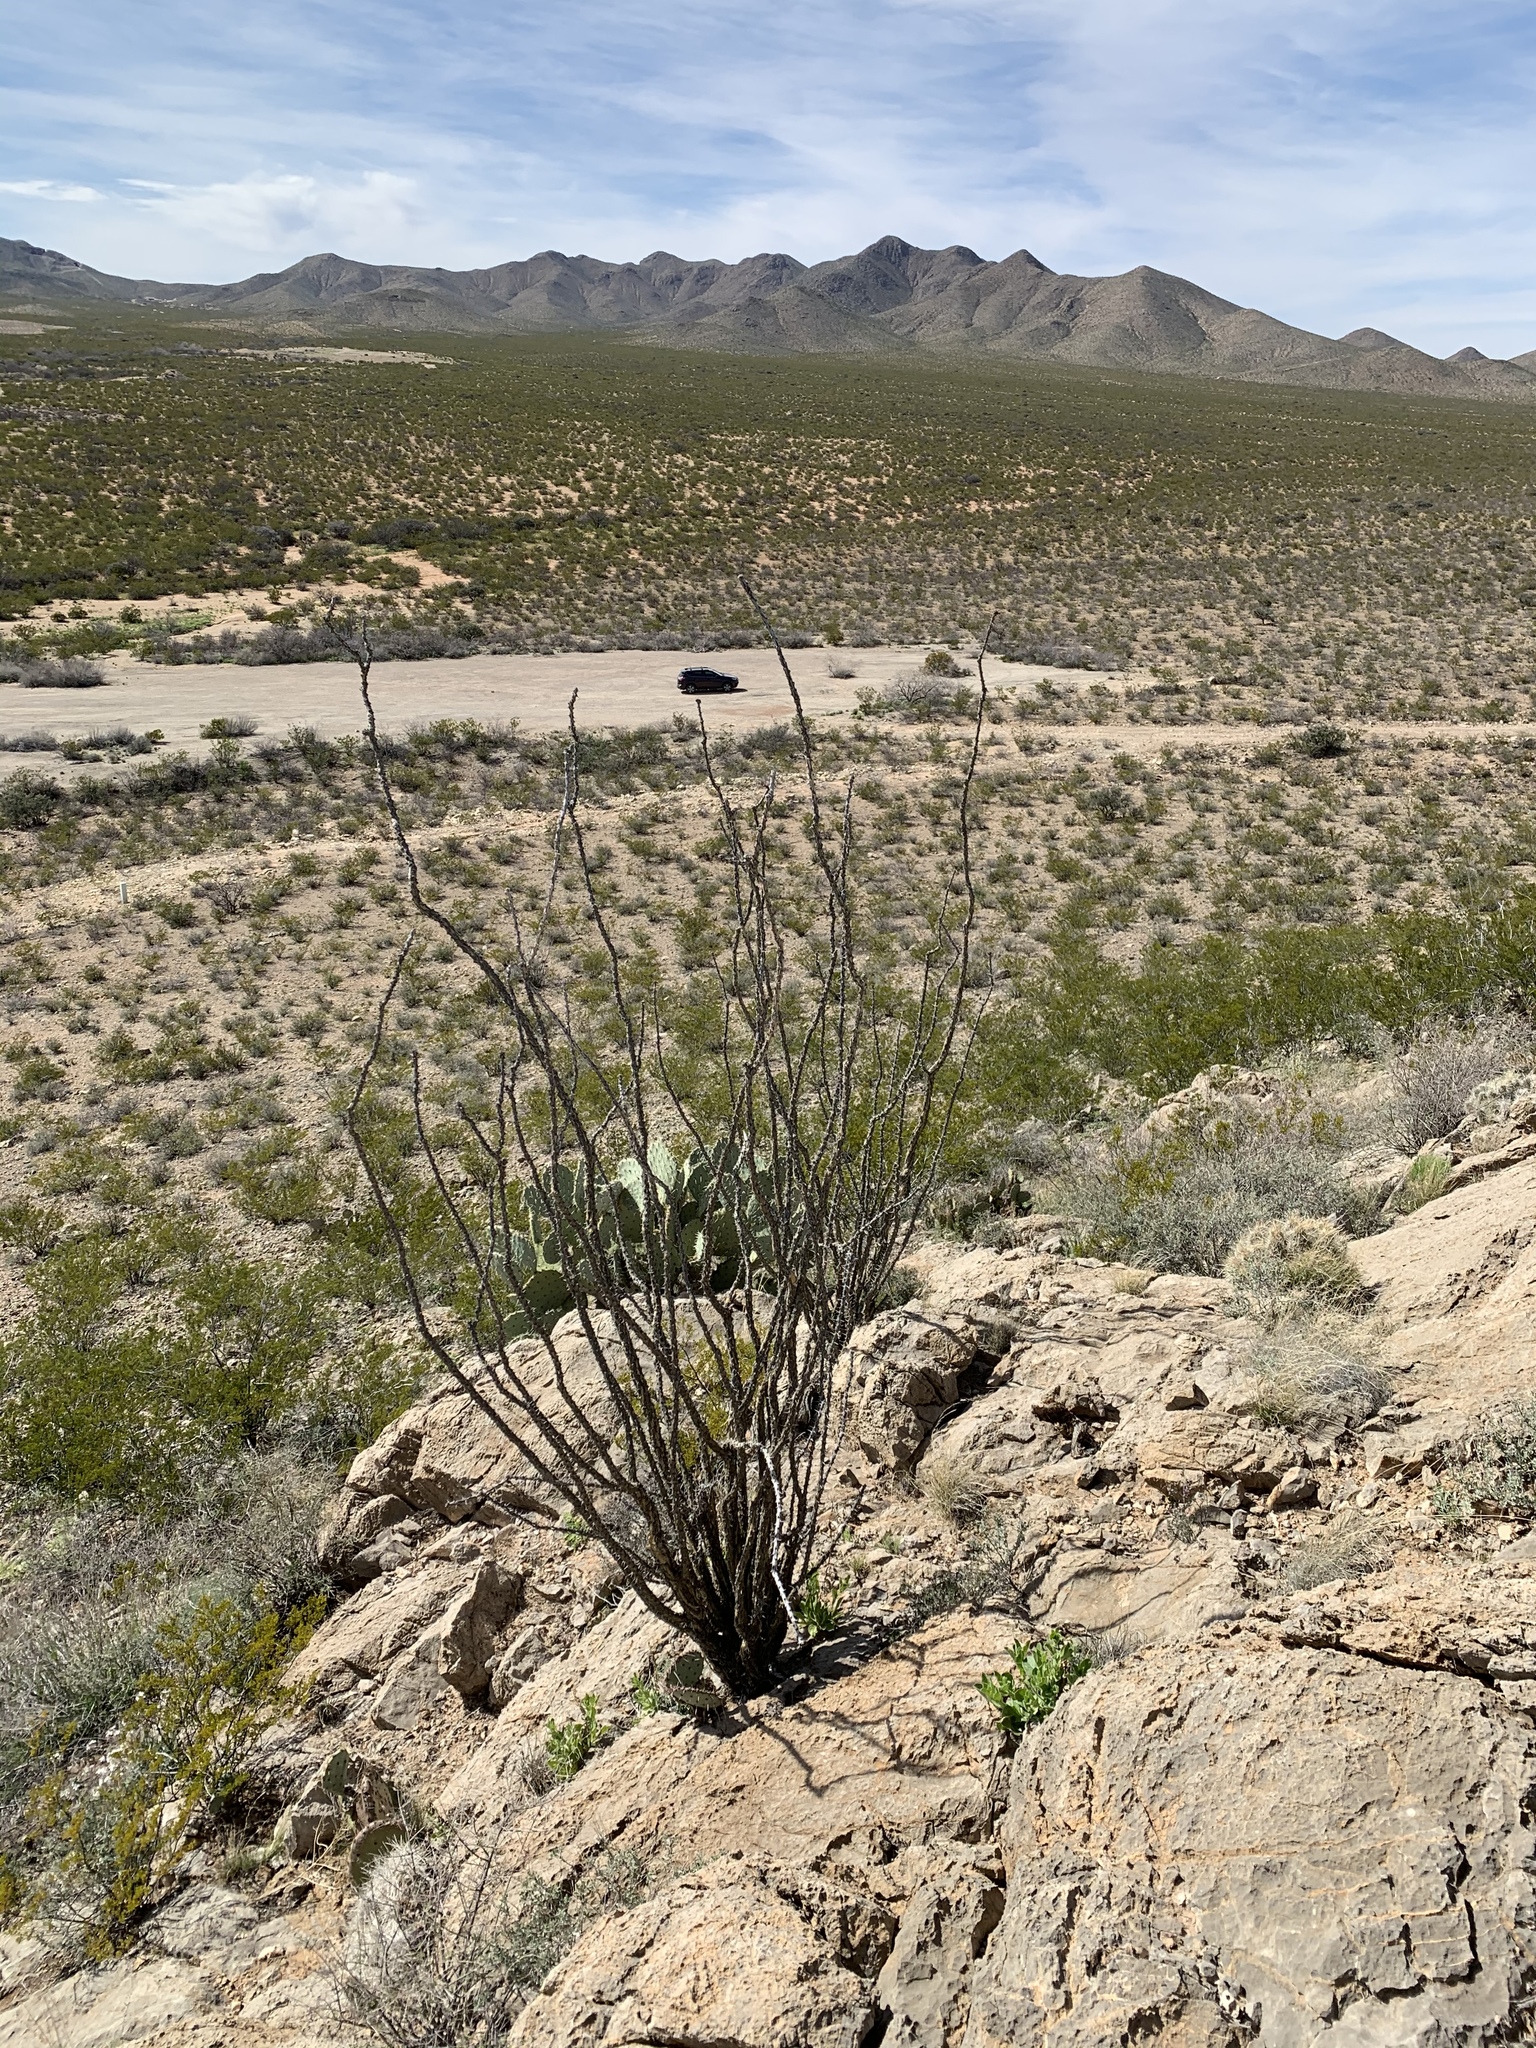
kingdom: Plantae
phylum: Tracheophyta
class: Magnoliopsida
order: Ericales
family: Fouquieriaceae
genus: Fouquieria
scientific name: Fouquieria splendens
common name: Vine-cactus
